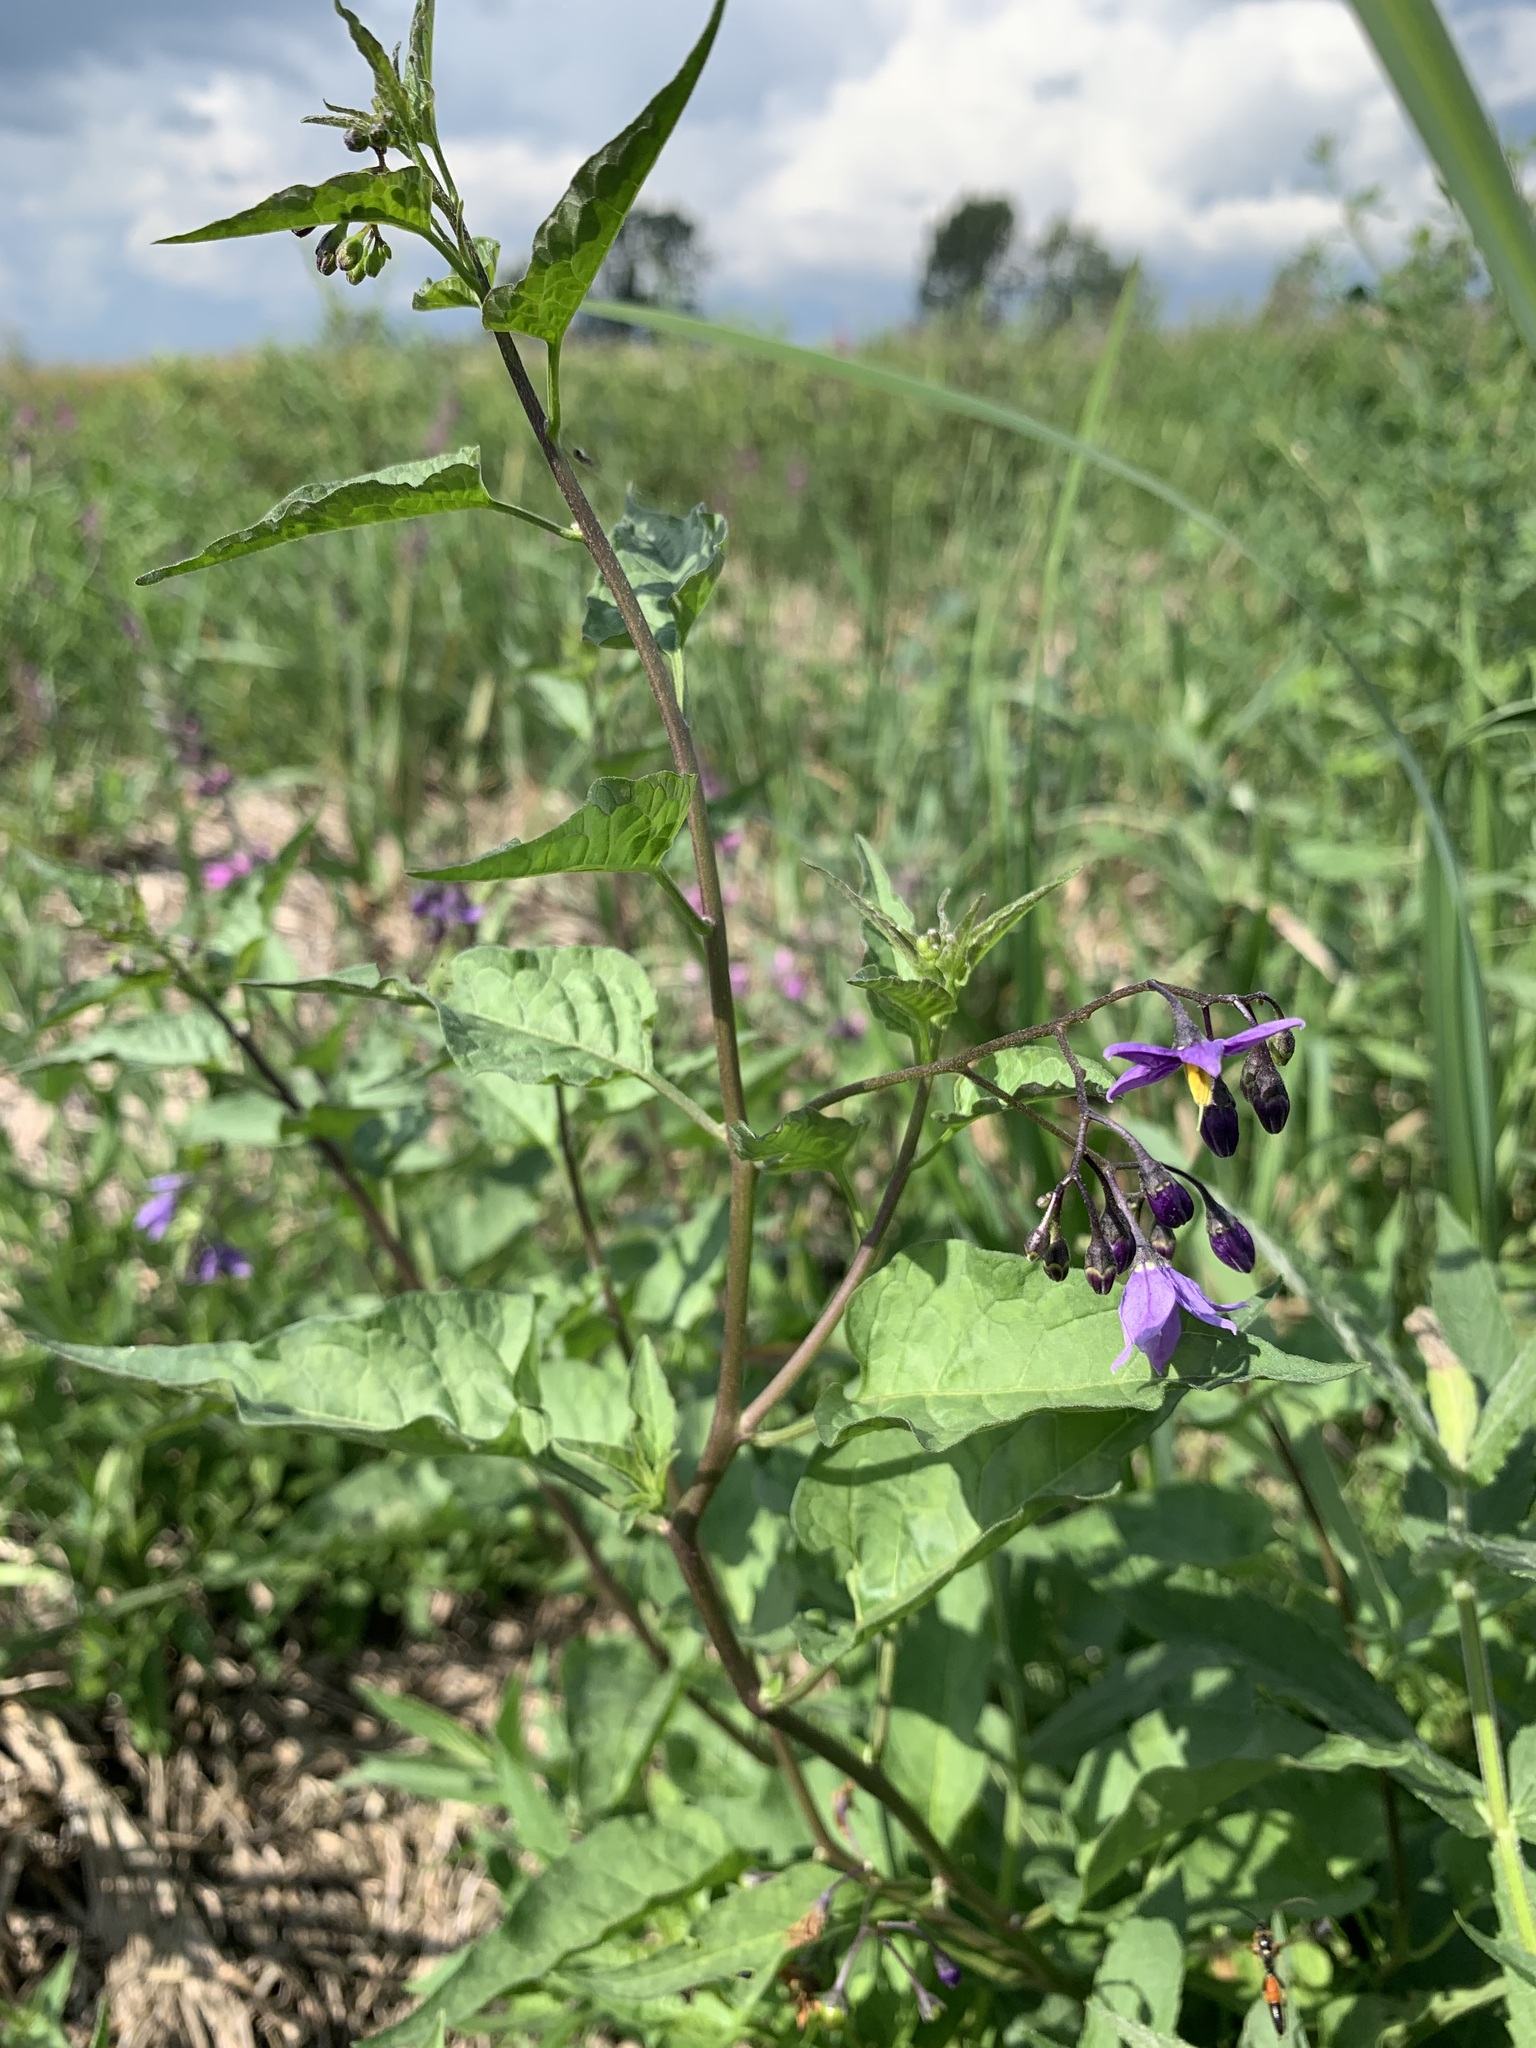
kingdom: Plantae
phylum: Tracheophyta
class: Magnoliopsida
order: Solanales
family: Solanaceae
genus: Solanum
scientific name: Solanum dulcamara
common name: Climbing nightshade
